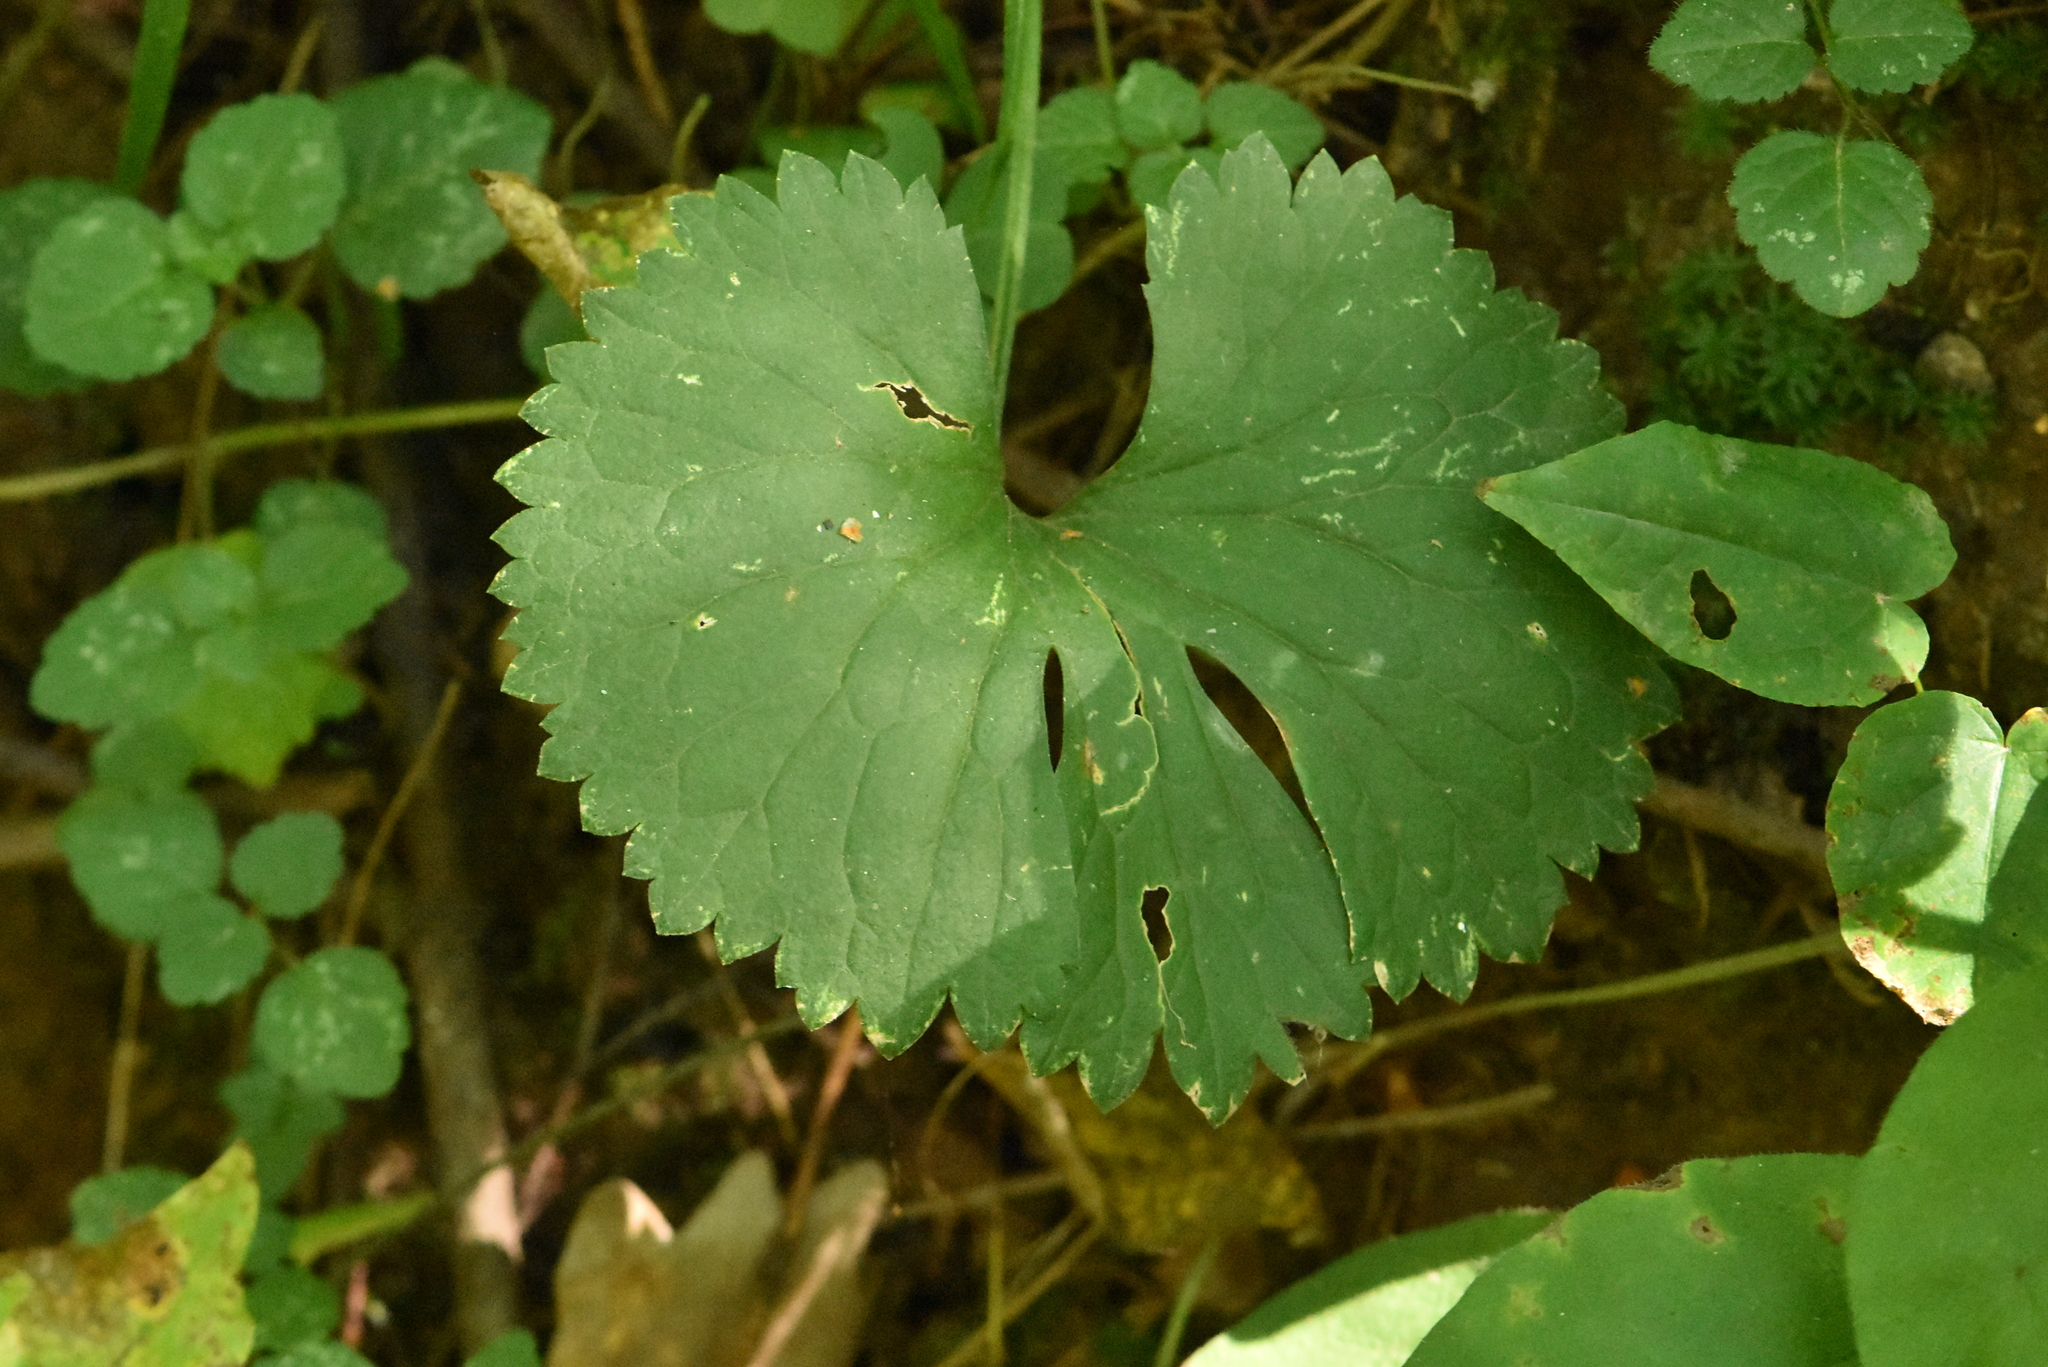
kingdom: Plantae
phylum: Tracheophyta
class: Magnoliopsida
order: Ranunculales
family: Ranunculaceae
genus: Ranunculus
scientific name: Ranunculus cassubicus
